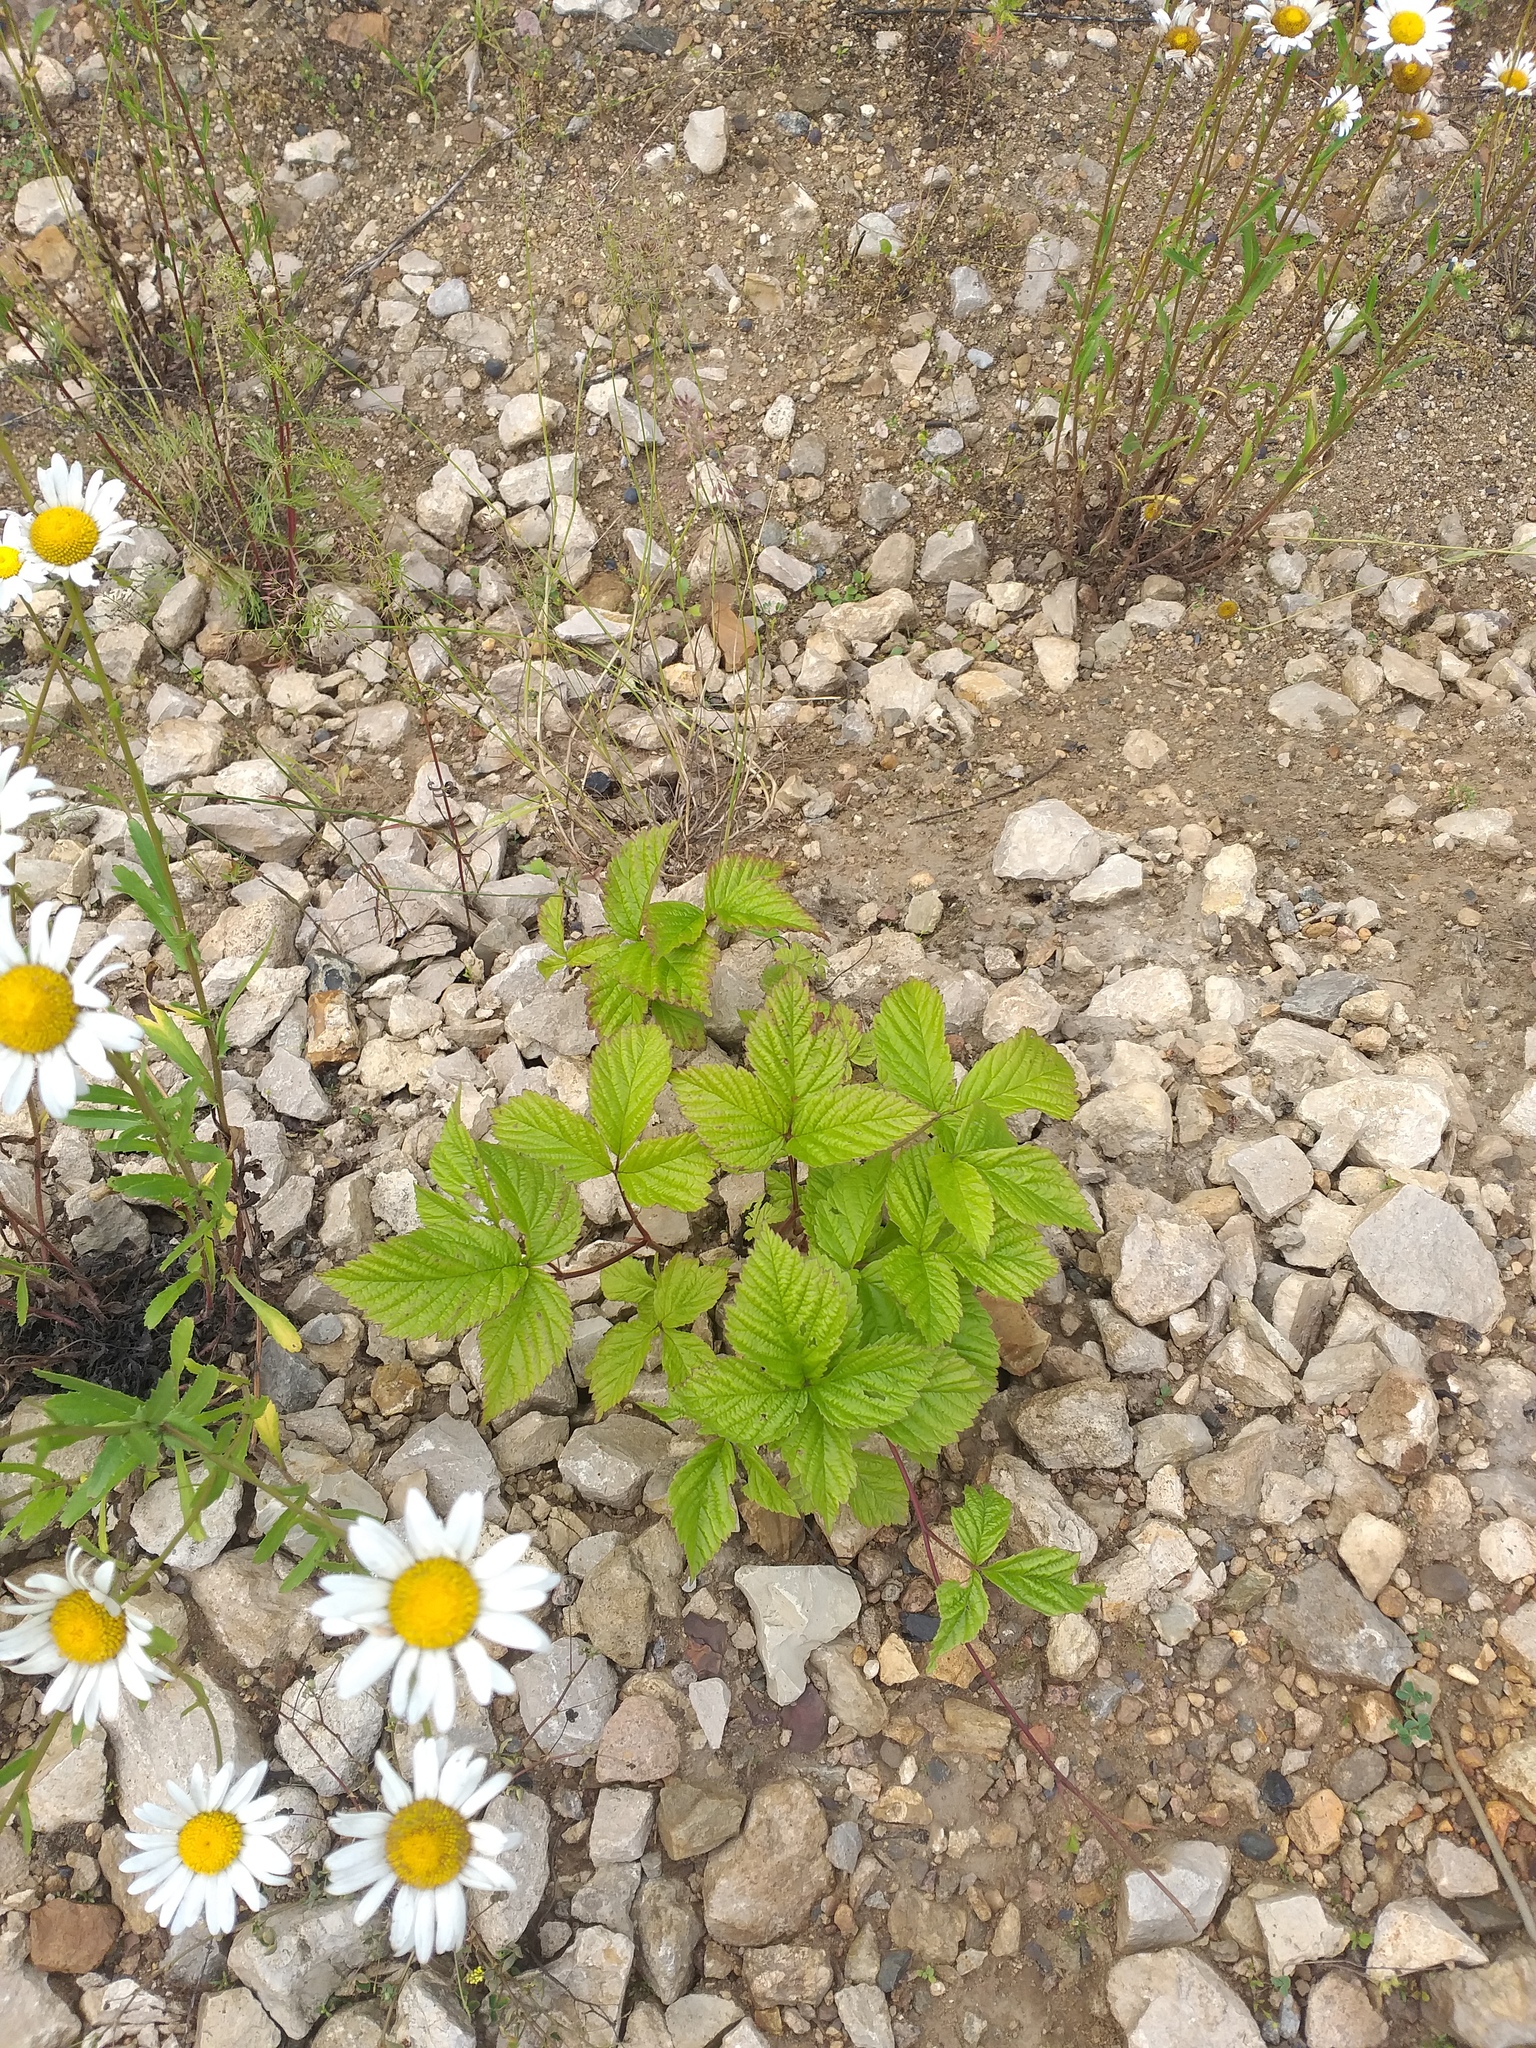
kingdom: Plantae
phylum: Tracheophyta
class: Magnoliopsida
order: Rosales
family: Rosaceae
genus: Rubus
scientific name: Rubus saxatilis
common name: Stone bramble
